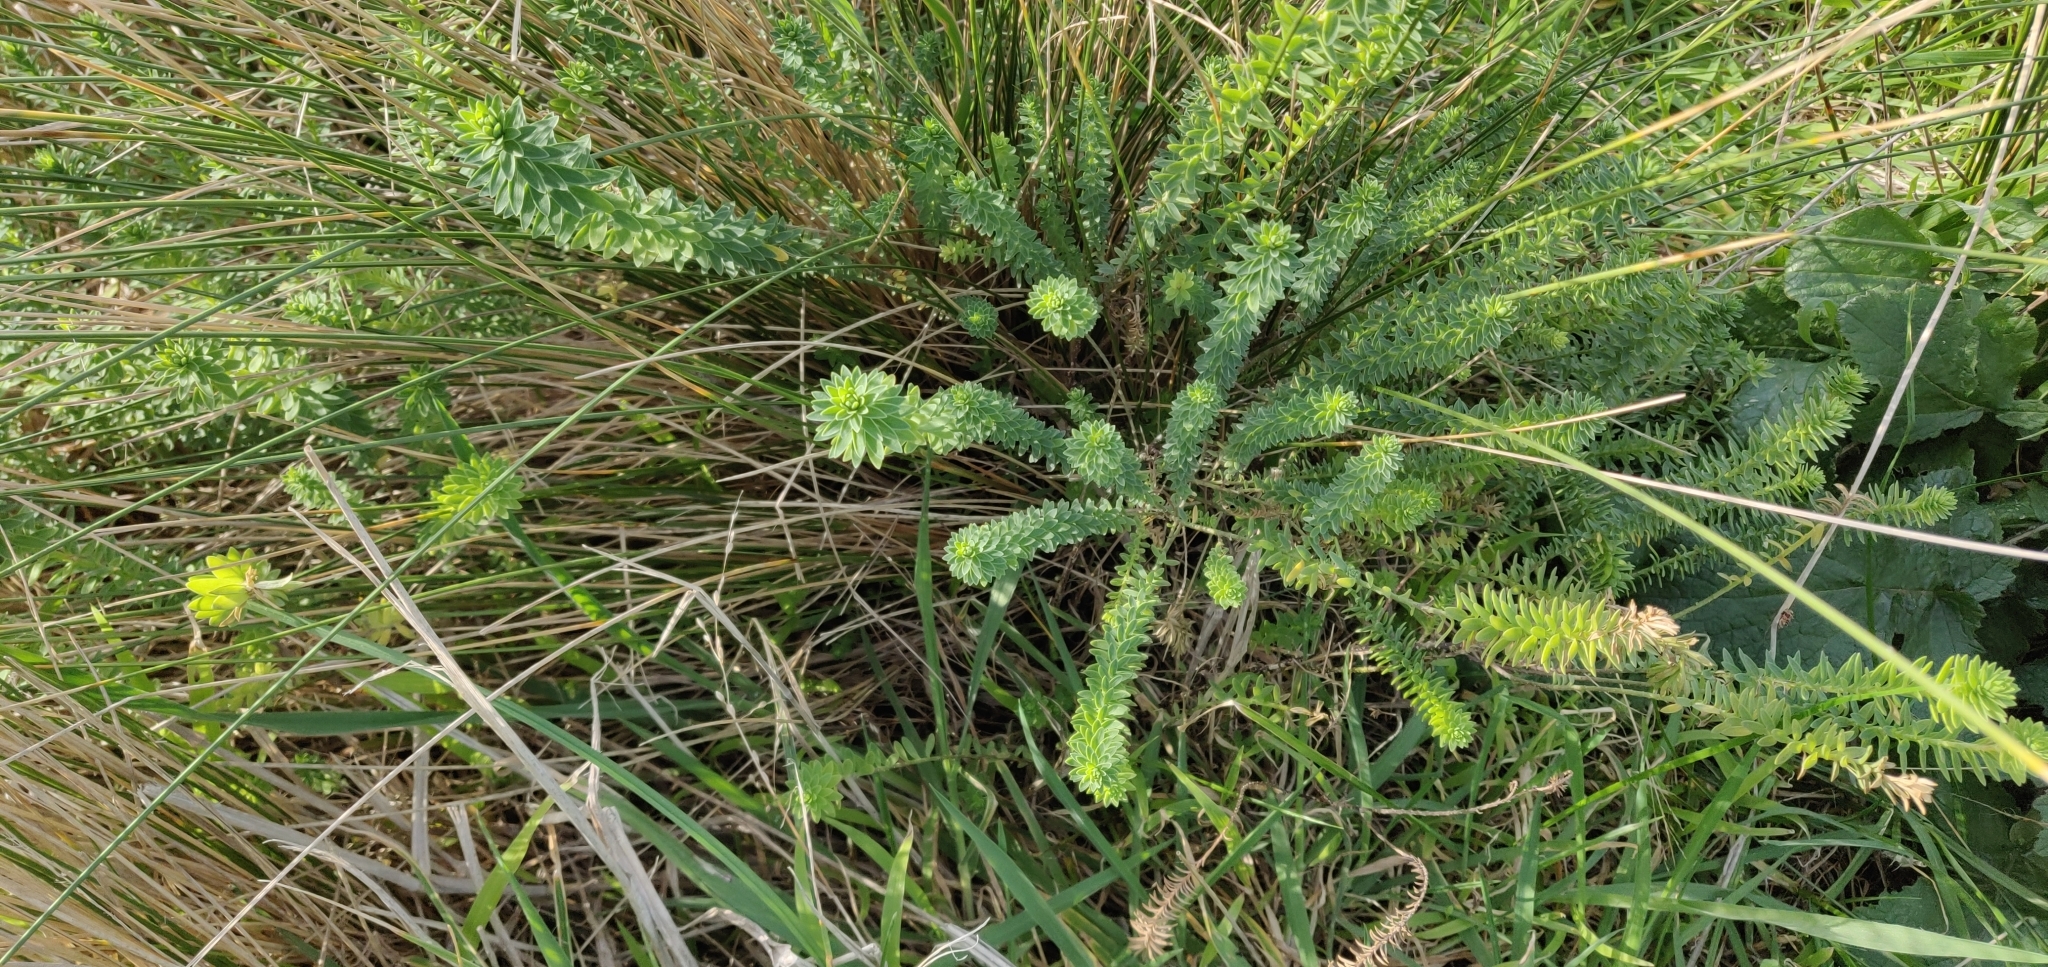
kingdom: Plantae
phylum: Tracheophyta
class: Magnoliopsida
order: Malpighiales
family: Linaceae
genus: Linum
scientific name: Linum monogynum
